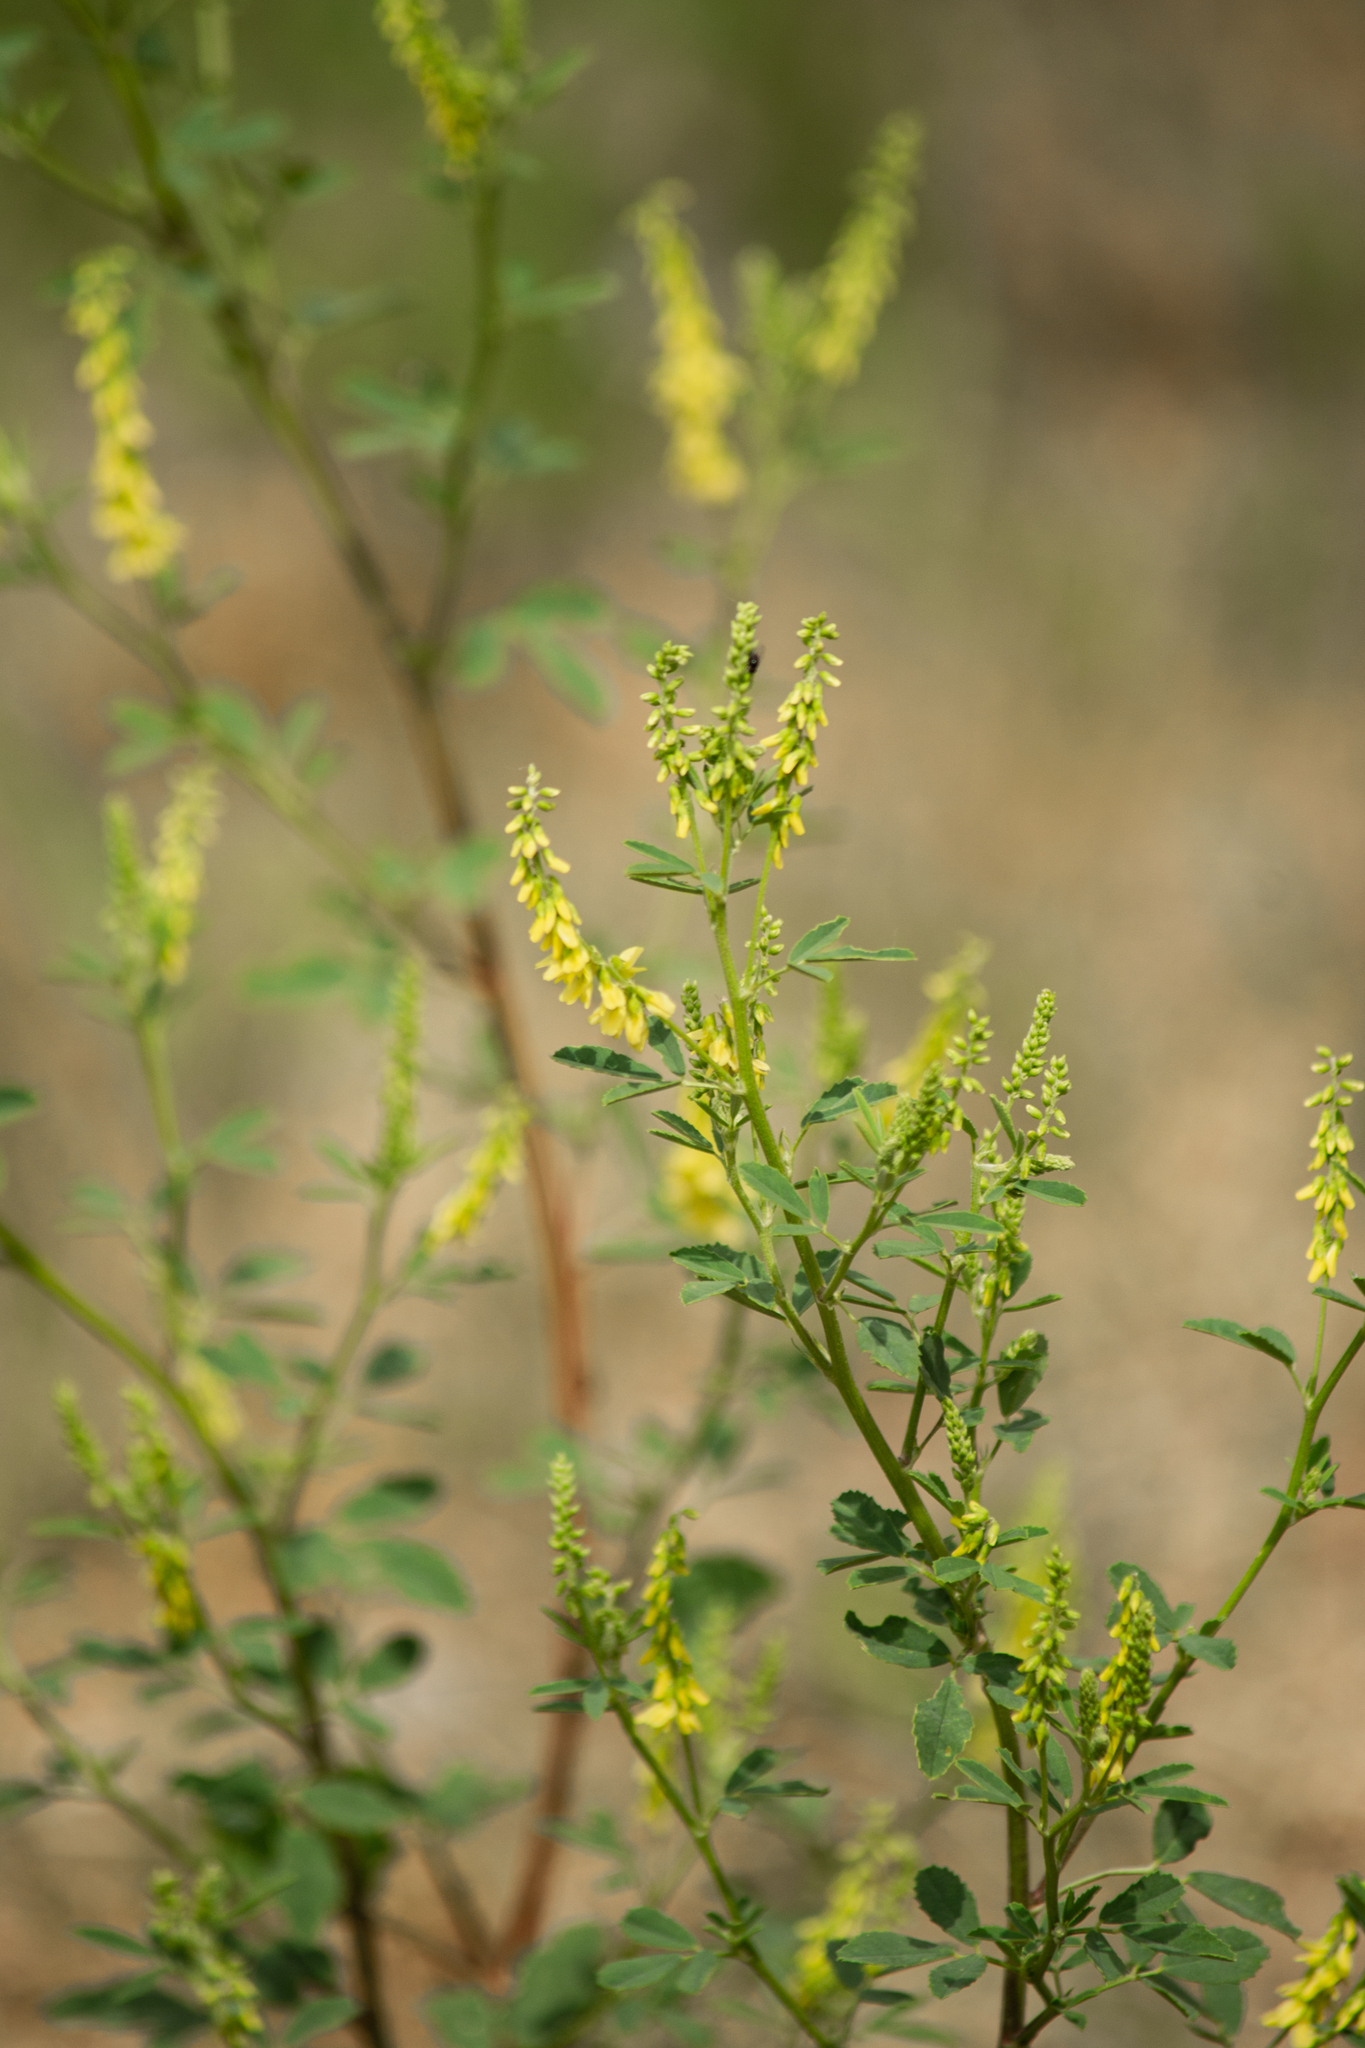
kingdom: Plantae
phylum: Tracheophyta
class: Magnoliopsida
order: Fabales
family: Fabaceae
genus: Melilotus
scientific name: Melilotus officinalis
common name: Sweetclover
